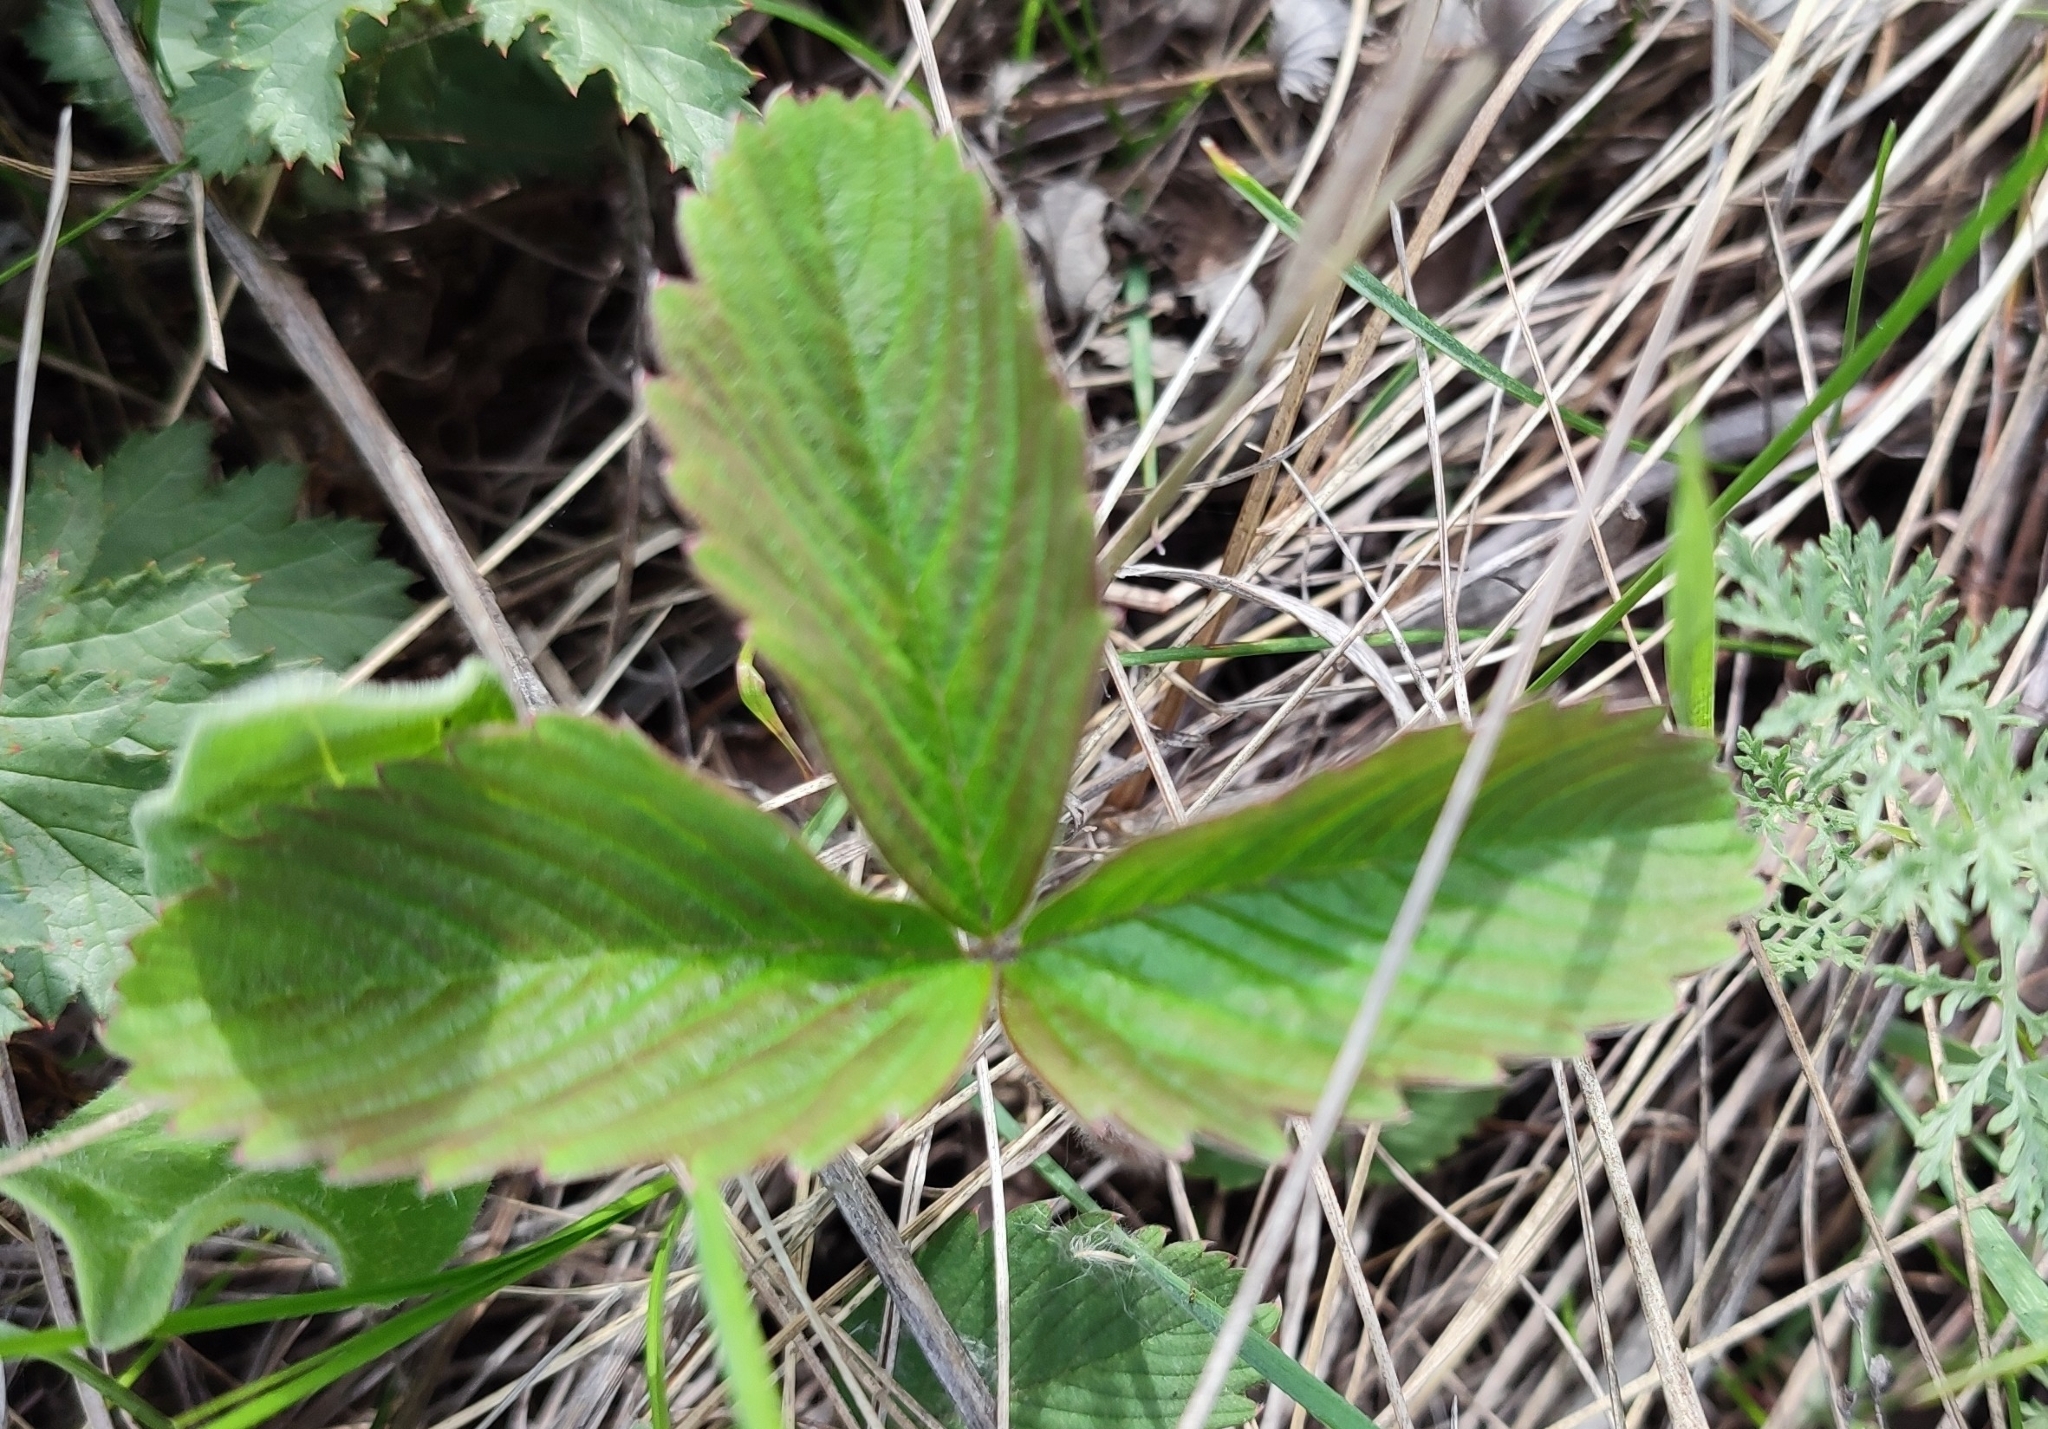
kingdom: Plantae
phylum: Tracheophyta
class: Magnoliopsida
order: Rosales
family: Rosaceae
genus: Fragaria
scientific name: Fragaria viridis
